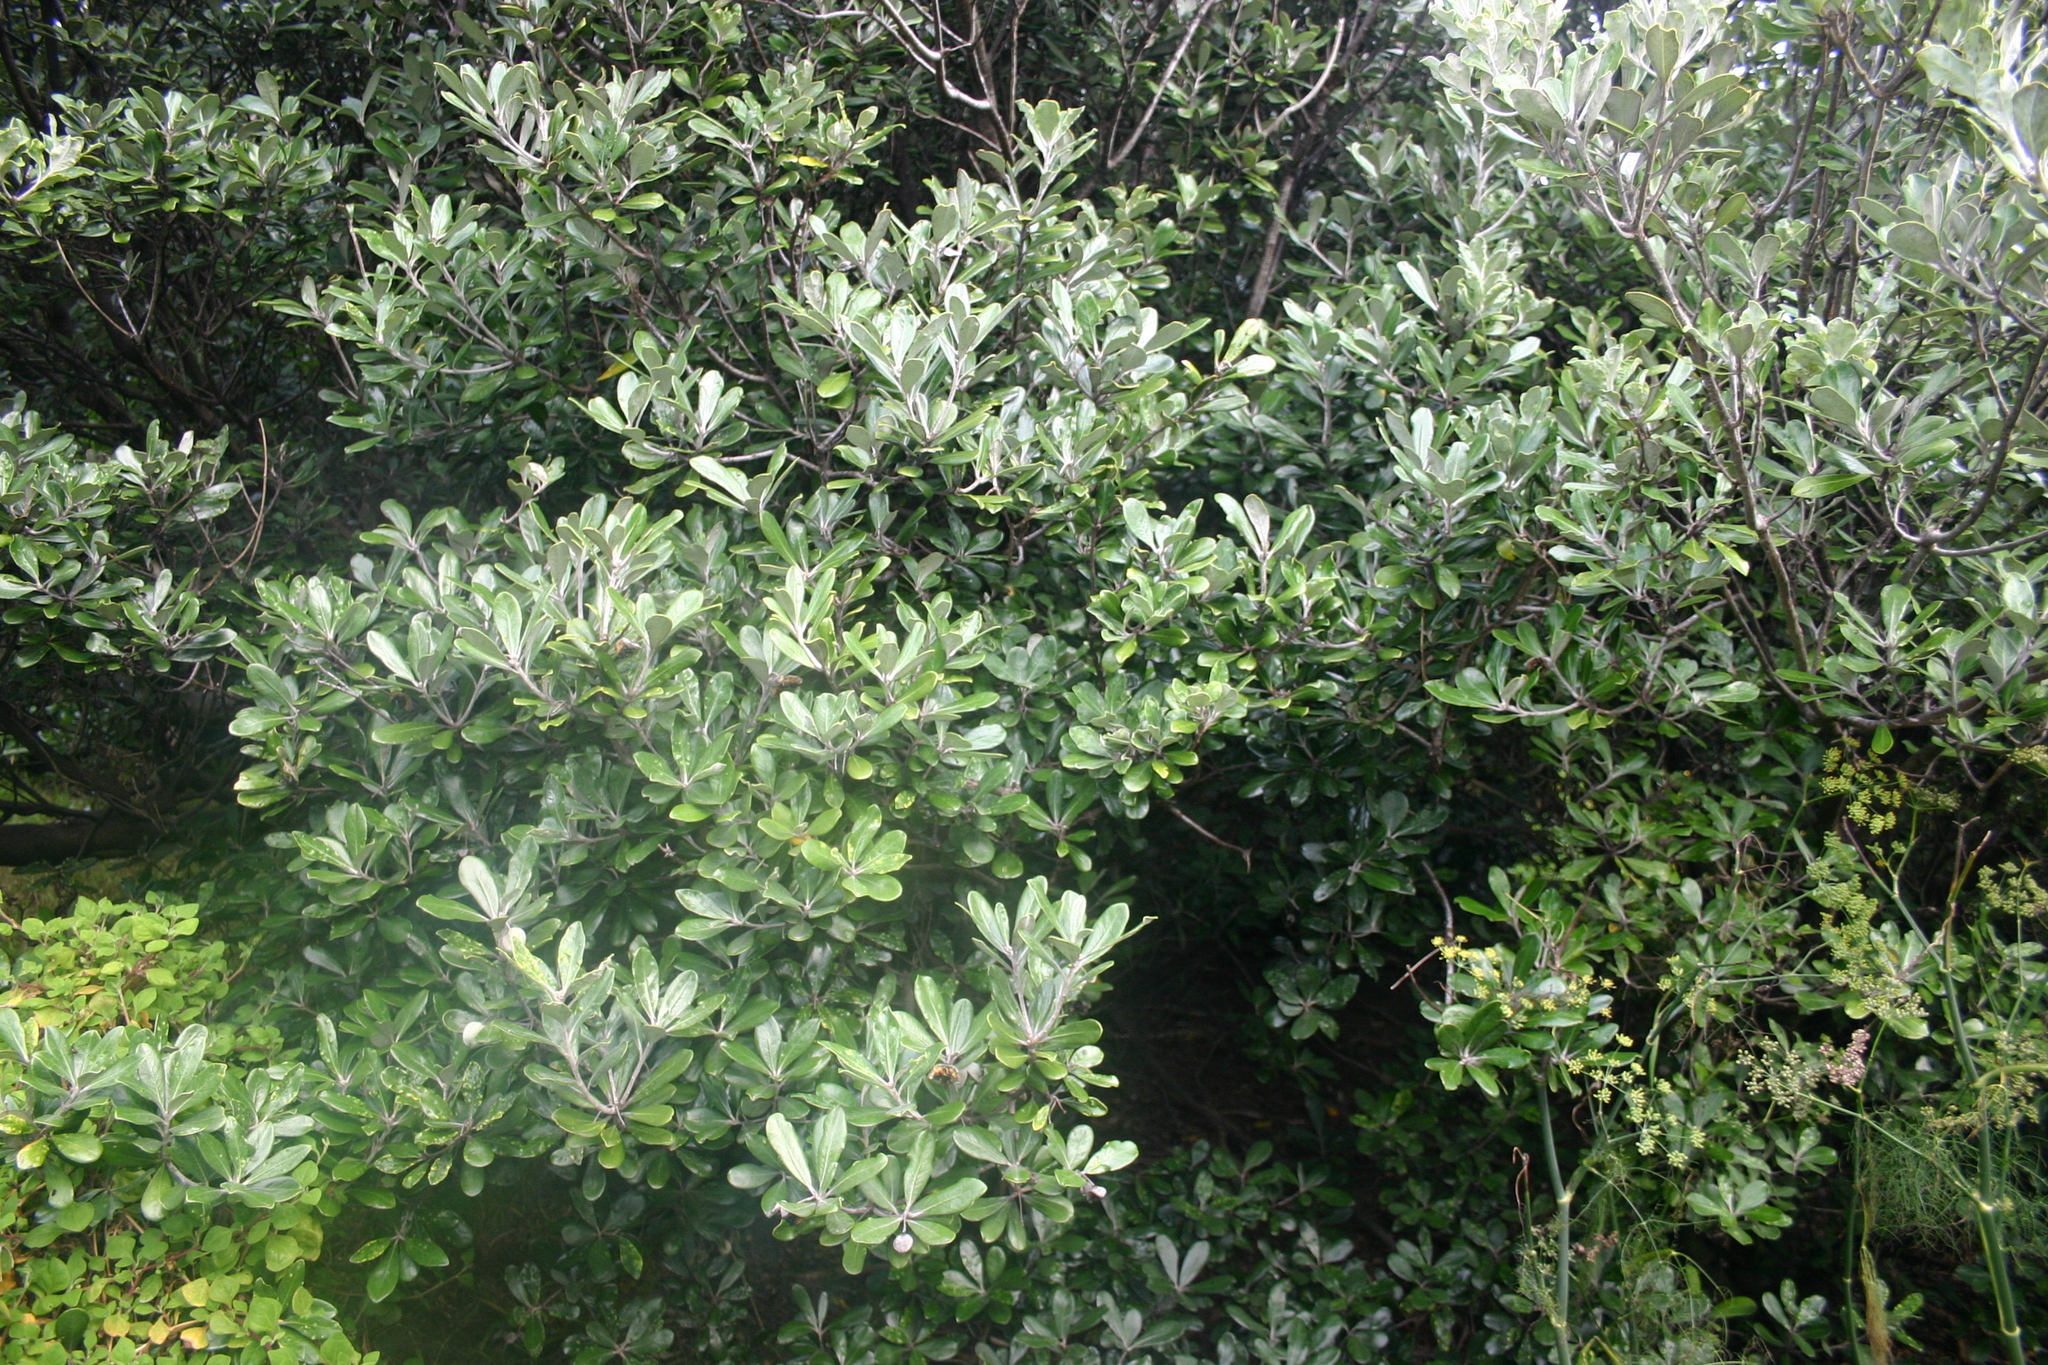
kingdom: Plantae
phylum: Tracheophyta
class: Magnoliopsida
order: Apiales
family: Pittosporaceae
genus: Pittosporum
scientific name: Pittosporum crassifolium
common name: Karo
